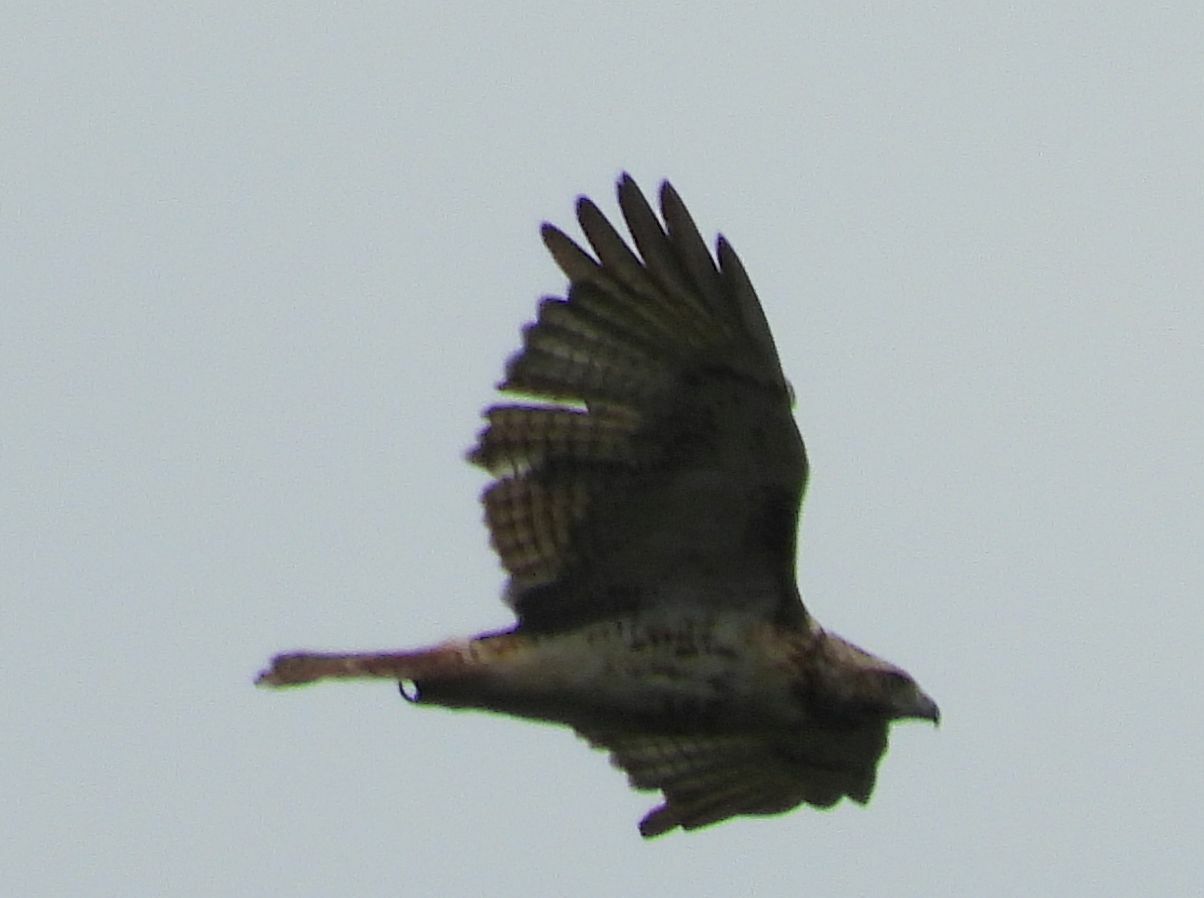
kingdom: Animalia
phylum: Chordata
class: Aves
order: Accipitriformes
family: Accipitridae
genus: Buteo
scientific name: Buteo jamaicensis
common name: Red-tailed hawk
